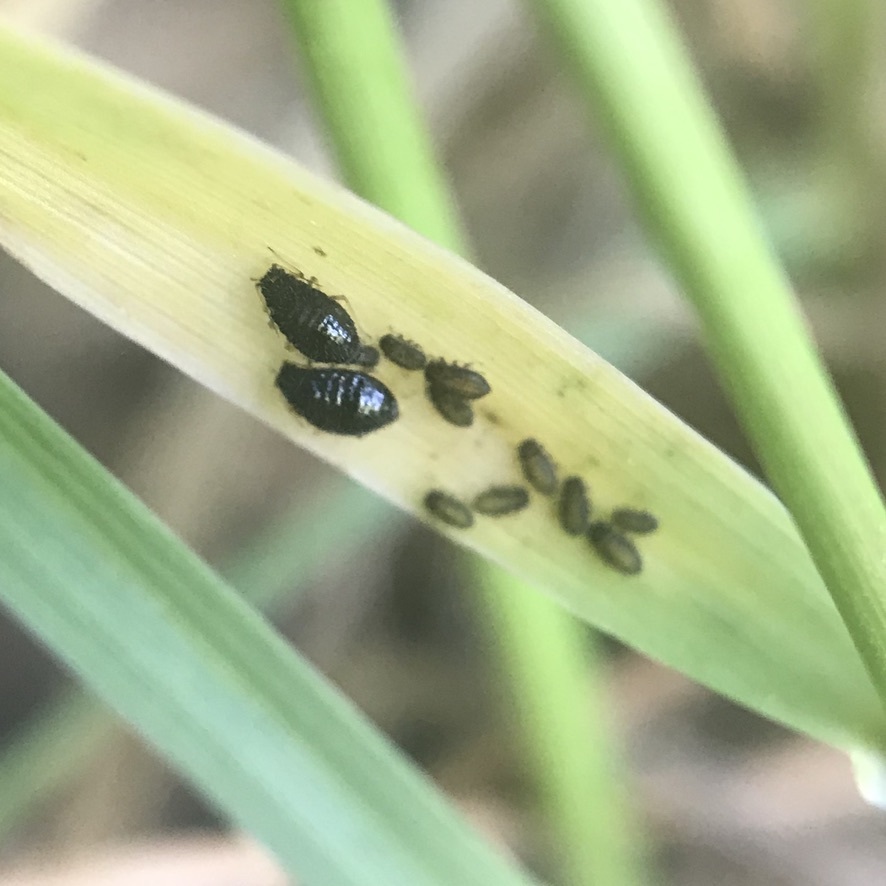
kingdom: Animalia
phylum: Arthropoda
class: Insecta
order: Hemiptera
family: Aphididae
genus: Sipha
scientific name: Sipha maydis
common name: Aphid
